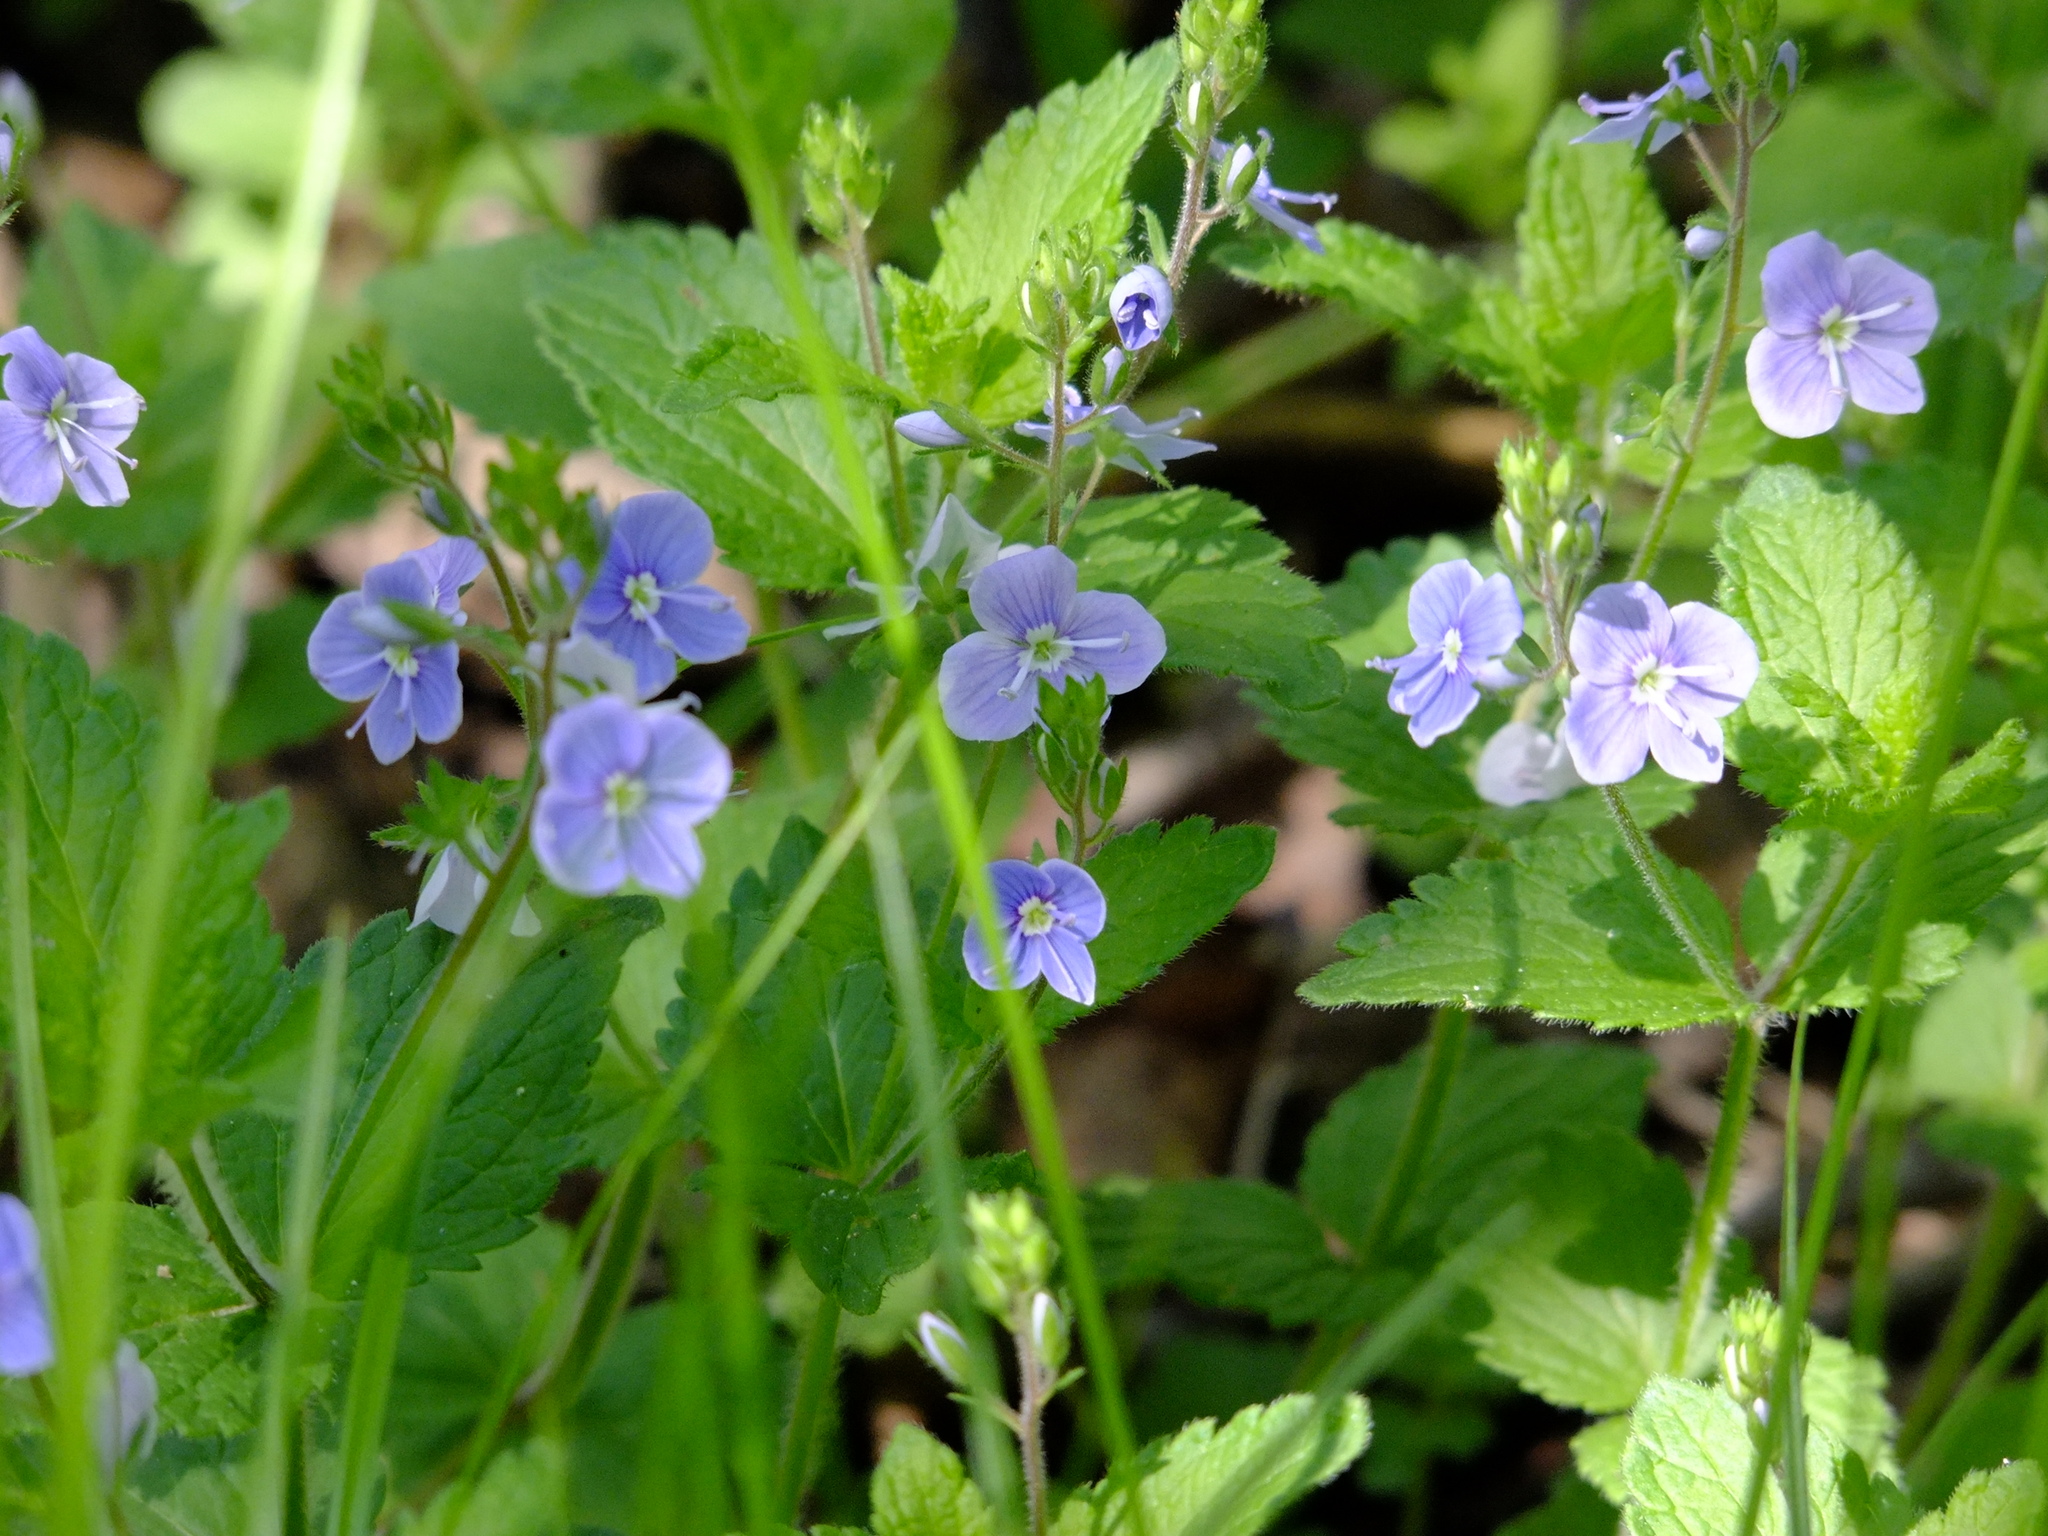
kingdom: Plantae
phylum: Tracheophyta
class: Magnoliopsida
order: Lamiales
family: Plantaginaceae
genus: Veronica
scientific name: Veronica chamaedrys
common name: Germander speedwell
